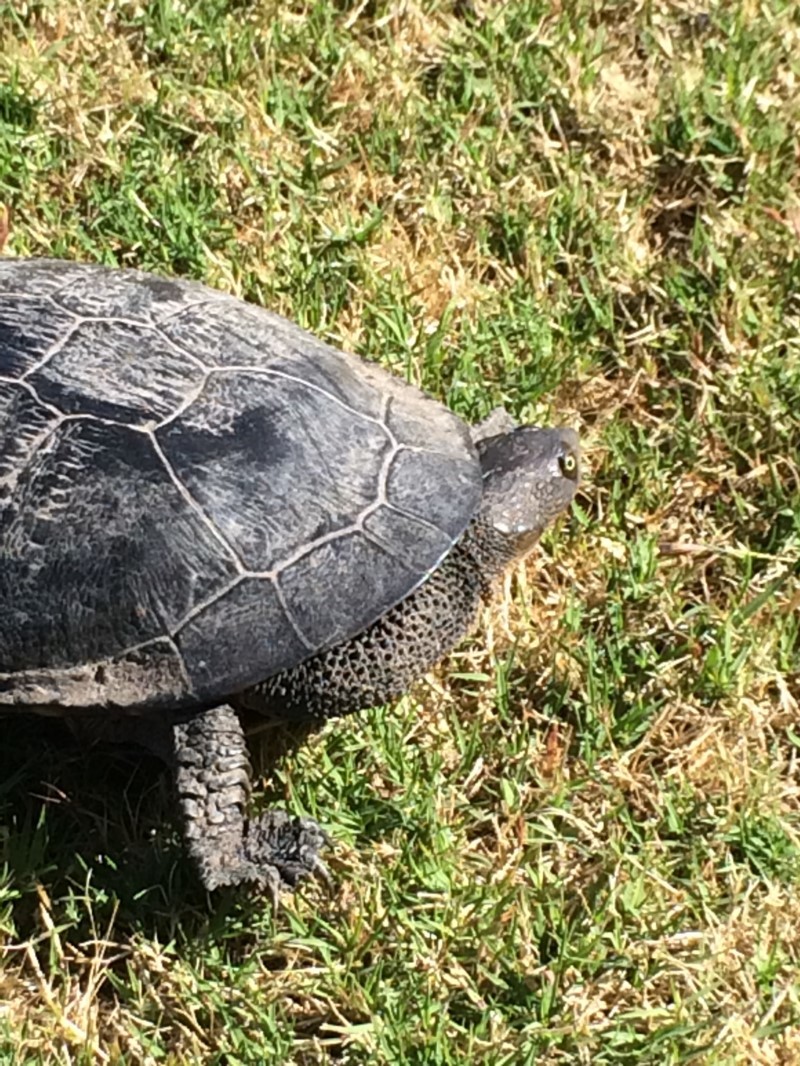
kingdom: Animalia
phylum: Chordata
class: Testudines
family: Chelidae
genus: Chelodina
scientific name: Chelodina longicollis
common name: Eastern snake-necked turtle
